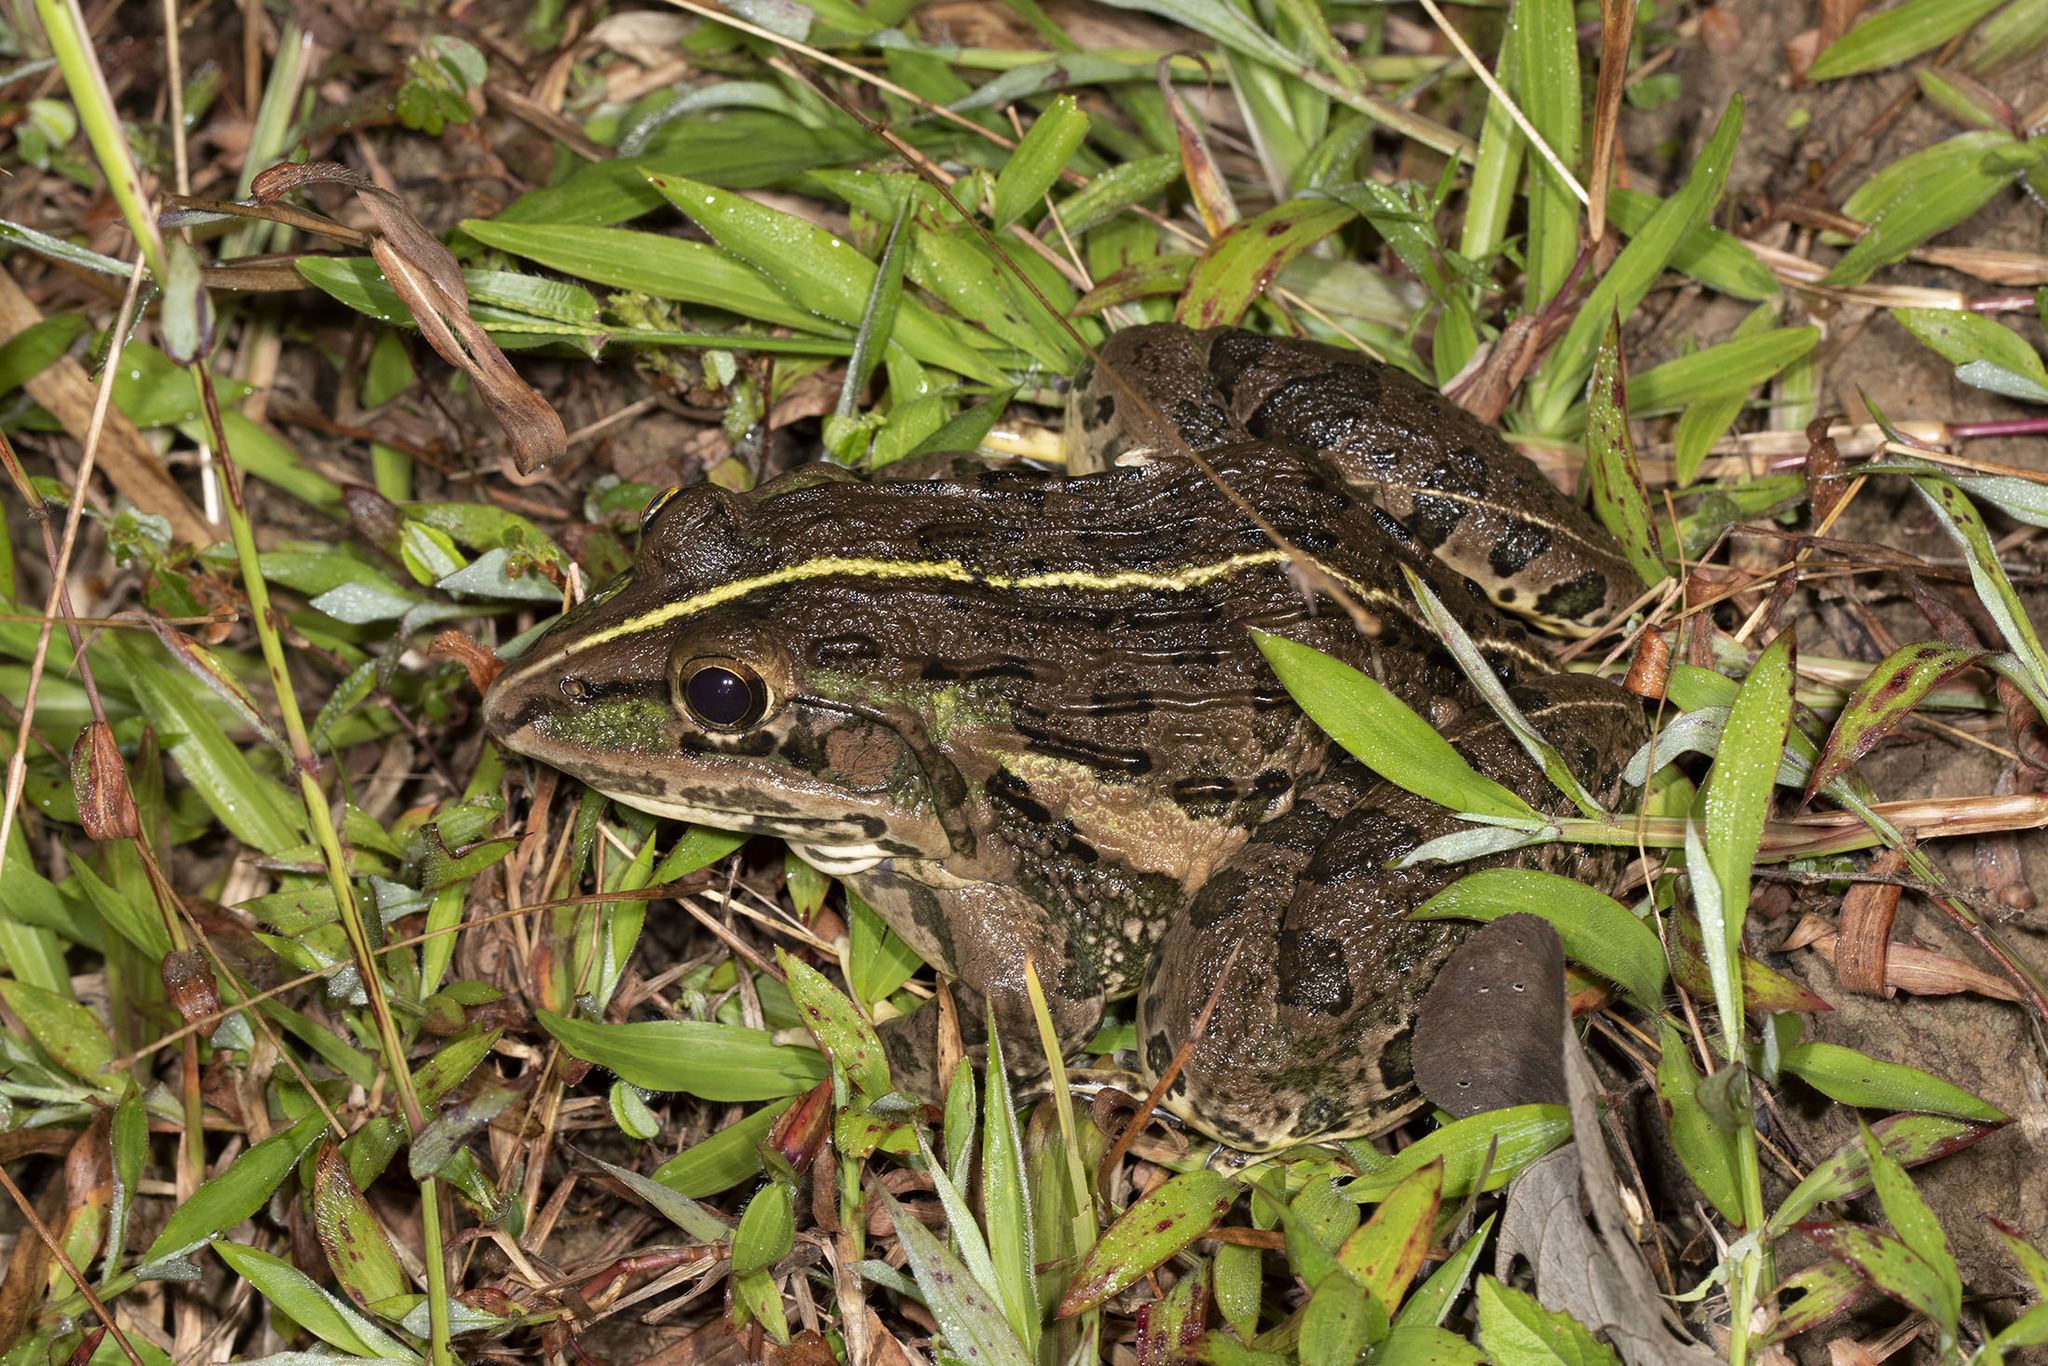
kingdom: Animalia
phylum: Chordata
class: Amphibia
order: Anura
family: Dicroglossidae
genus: Hoplobatrachus
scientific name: Hoplobatrachus tigerinus
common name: Indian bullfrog
